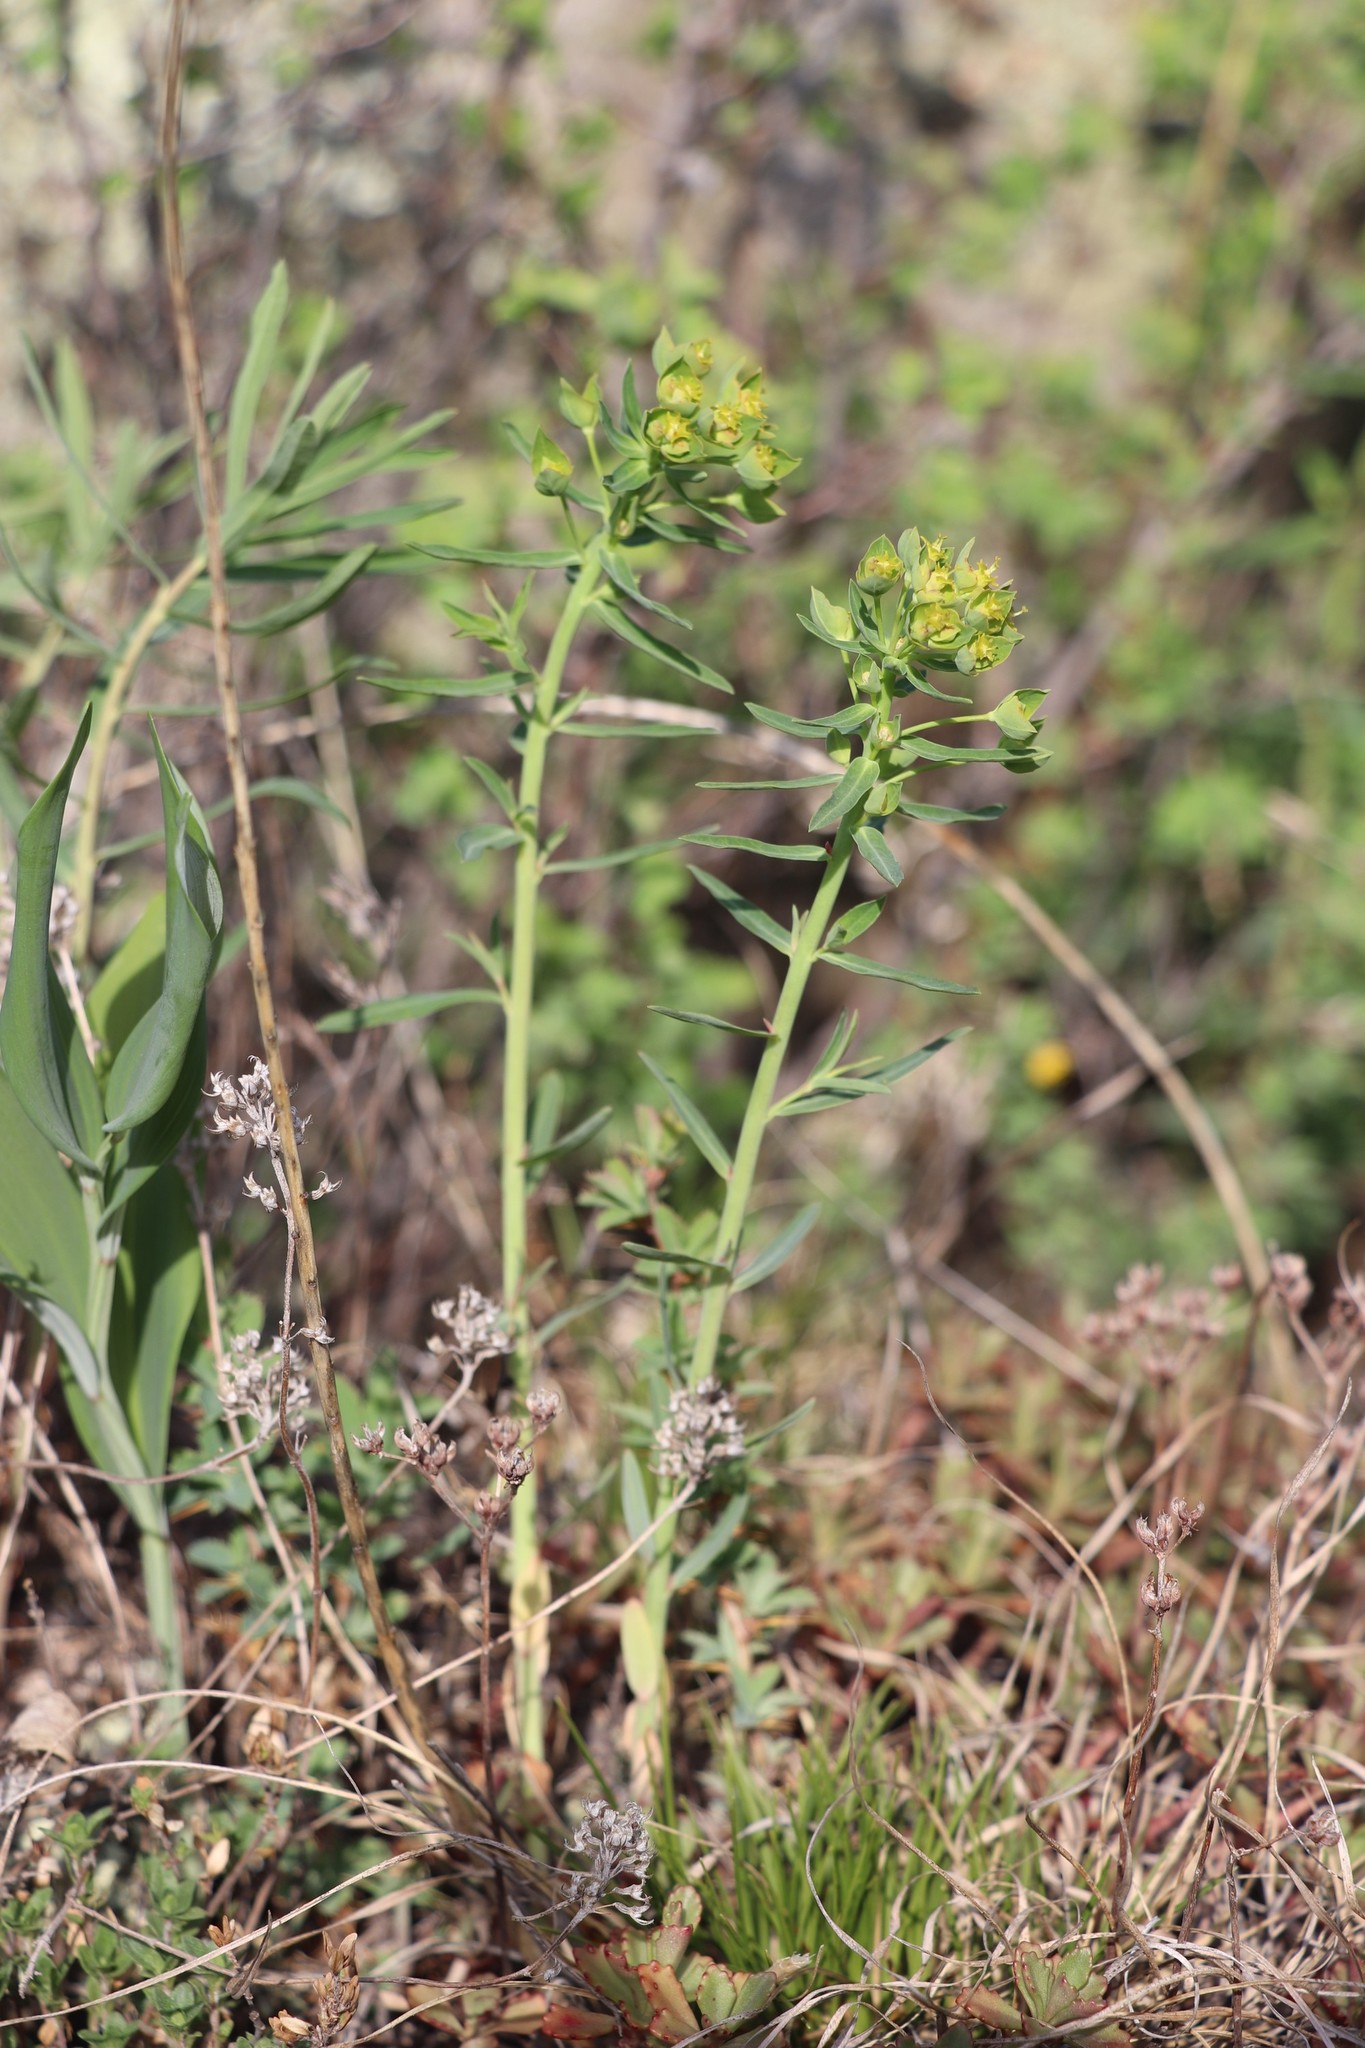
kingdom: Plantae
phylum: Tracheophyta
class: Magnoliopsida
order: Malpighiales
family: Euphorbiaceae
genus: Euphorbia
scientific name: Euphorbia virgata
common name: Leafy spurge
